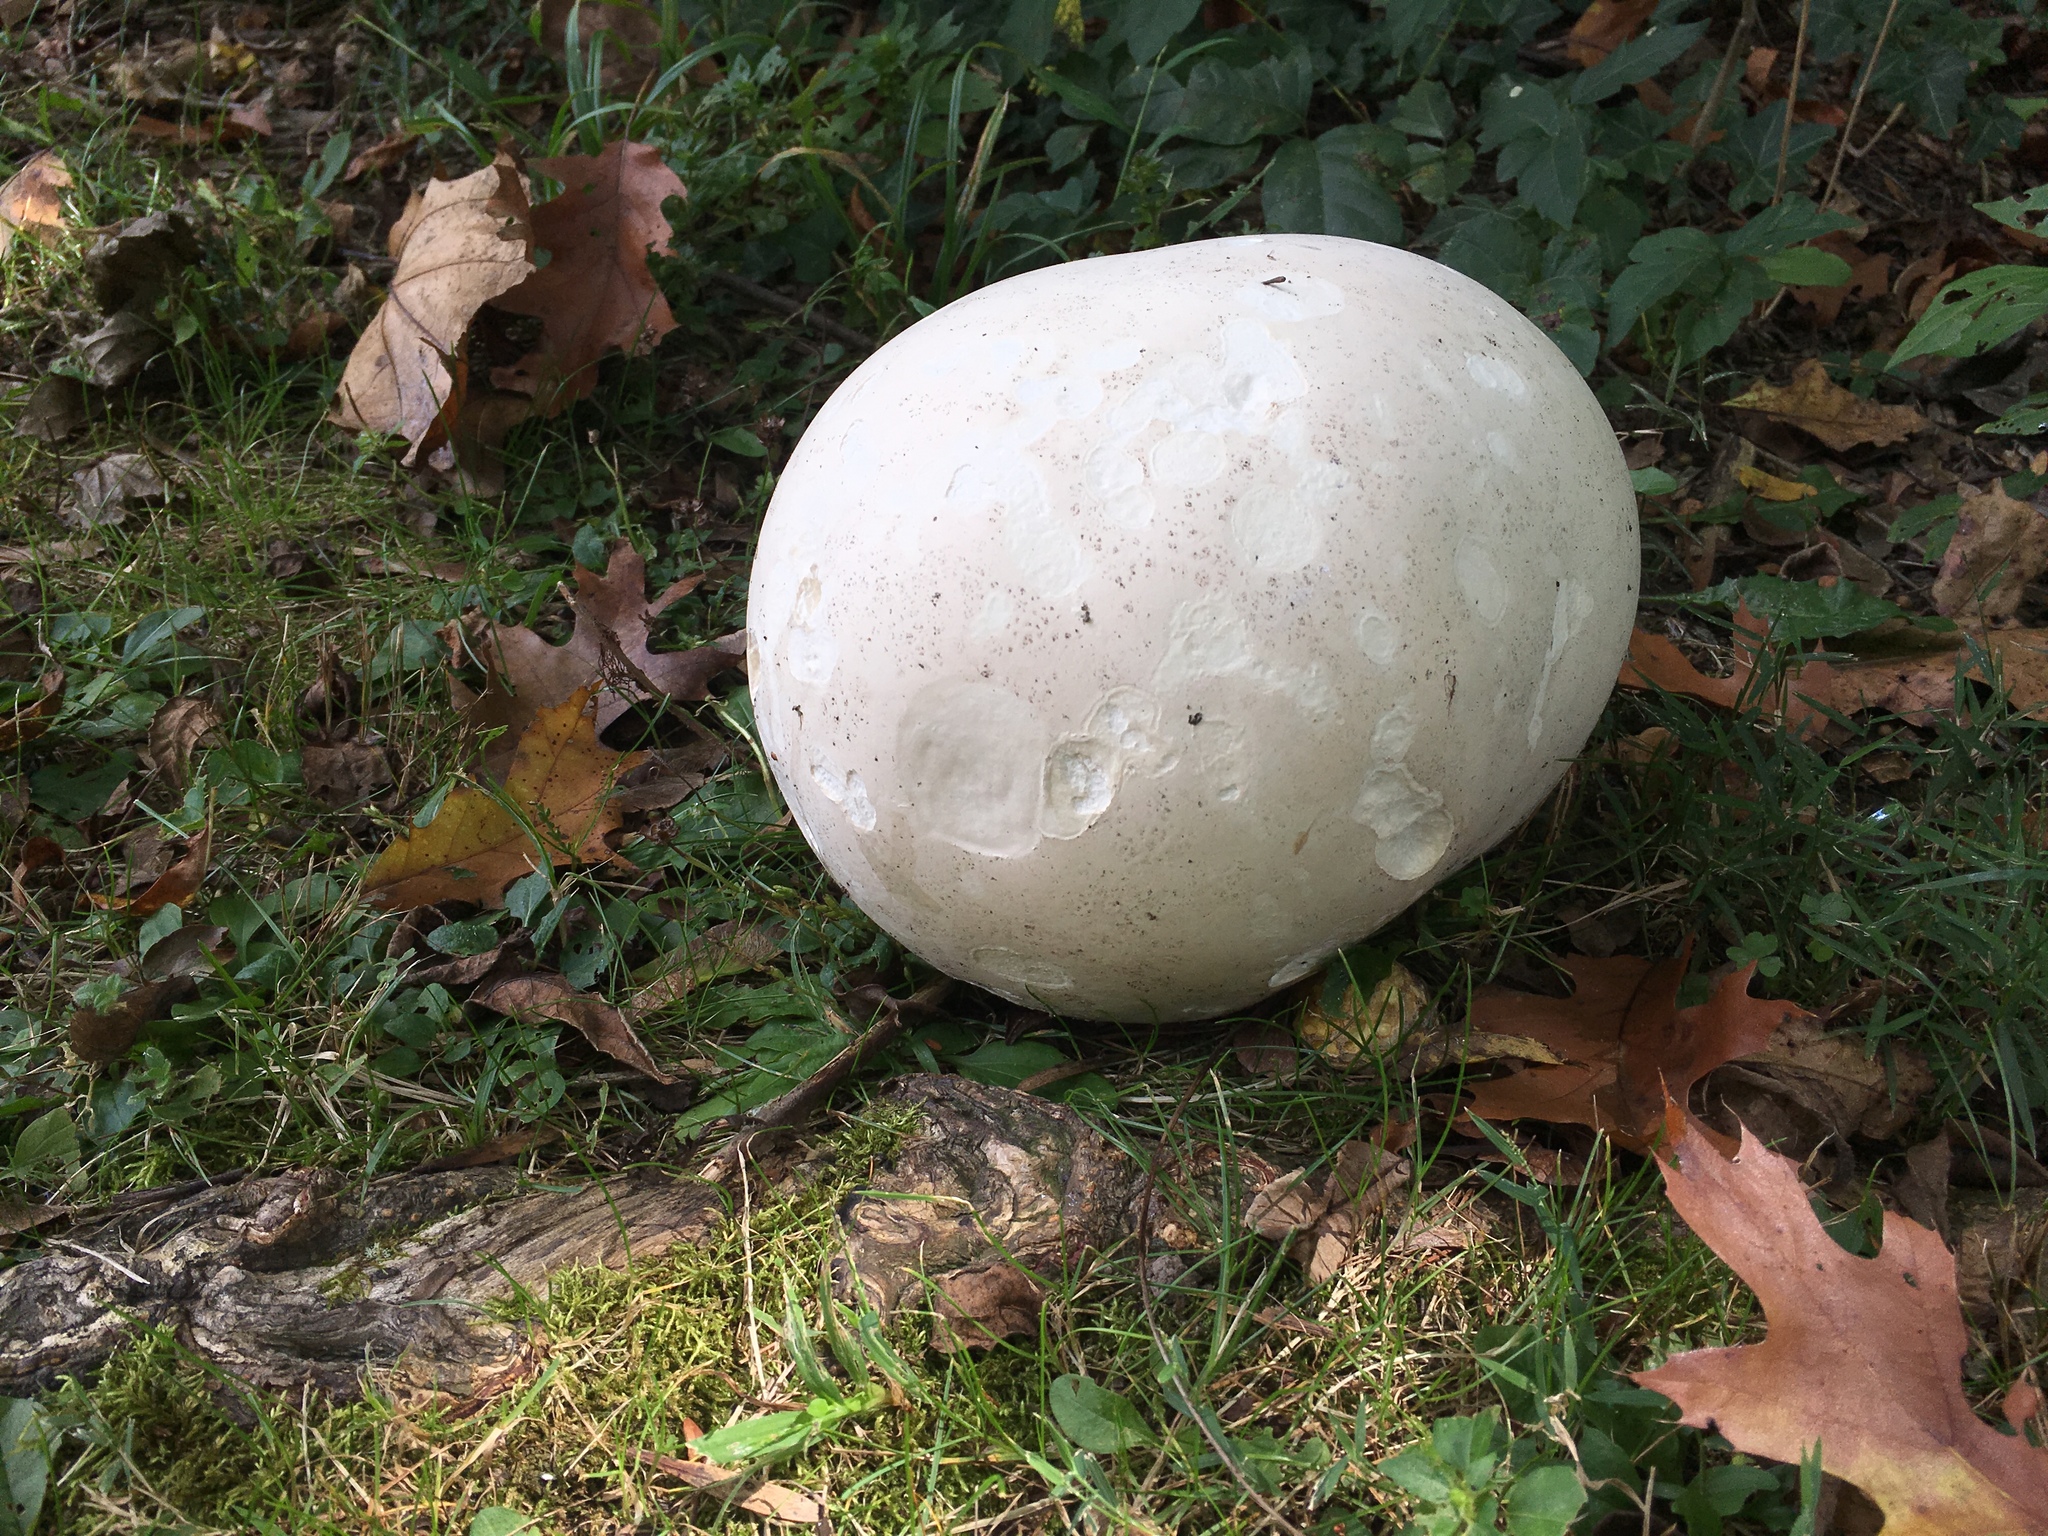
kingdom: Fungi
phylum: Basidiomycota
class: Agaricomycetes
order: Agaricales
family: Lycoperdaceae
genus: Calvatia
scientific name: Calvatia gigantea
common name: Giant puffball
